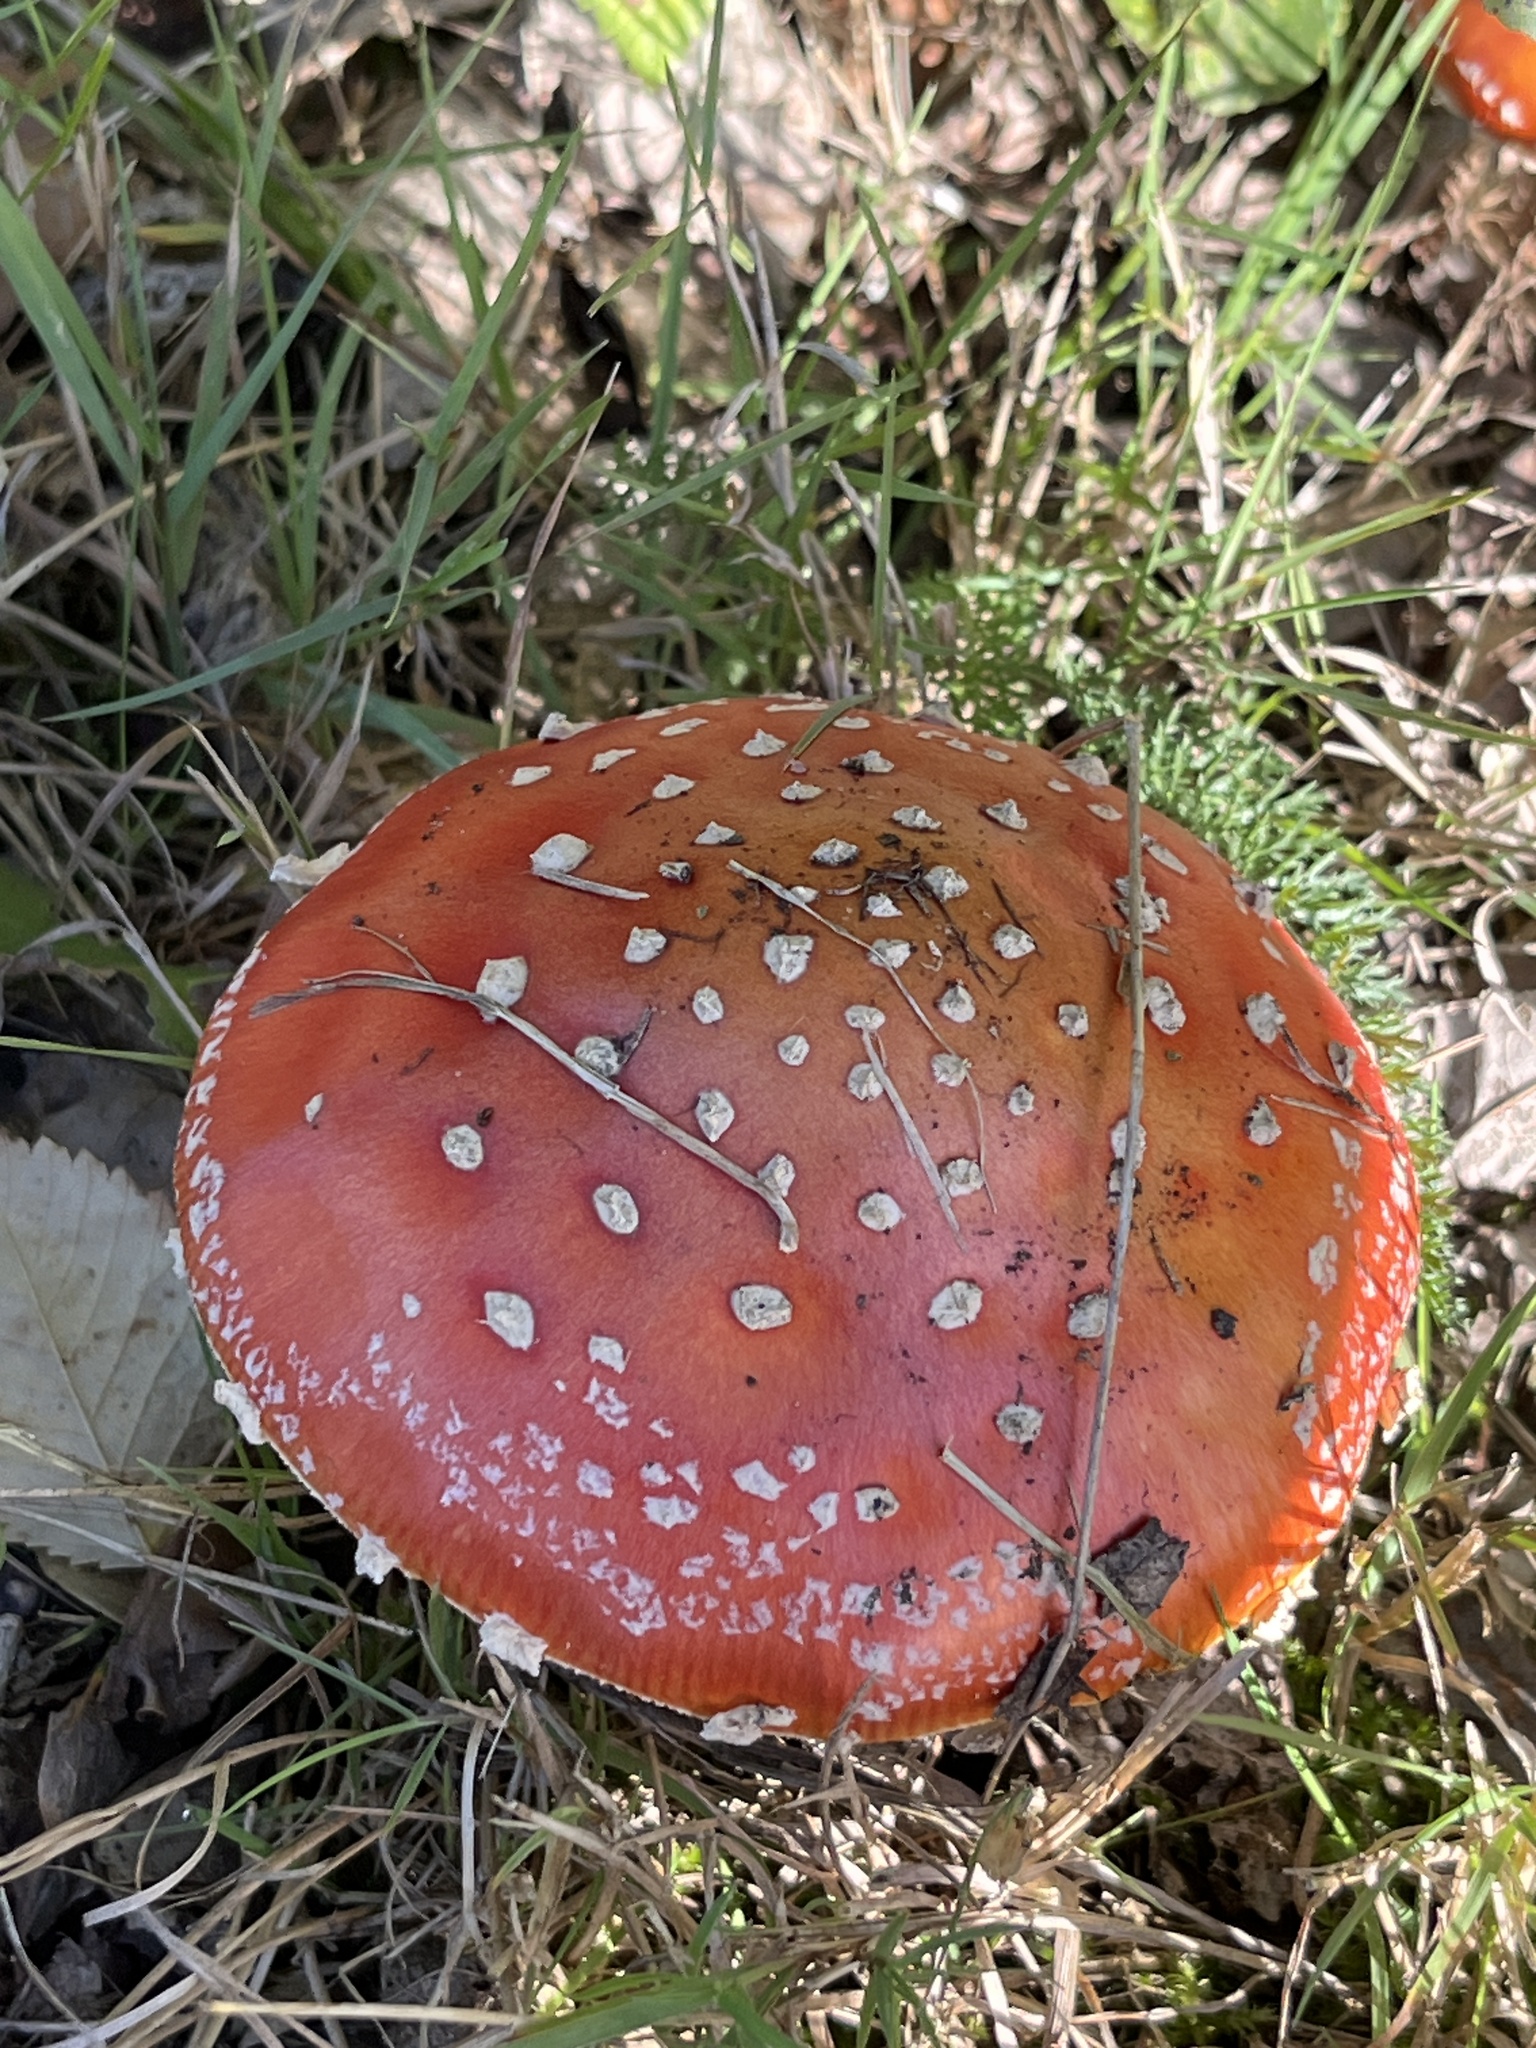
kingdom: Fungi
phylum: Basidiomycota
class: Agaricomycetes
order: Agaricales
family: Amanitaceae
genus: Amanita
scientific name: Amanita muscaria
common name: Fly agaric
